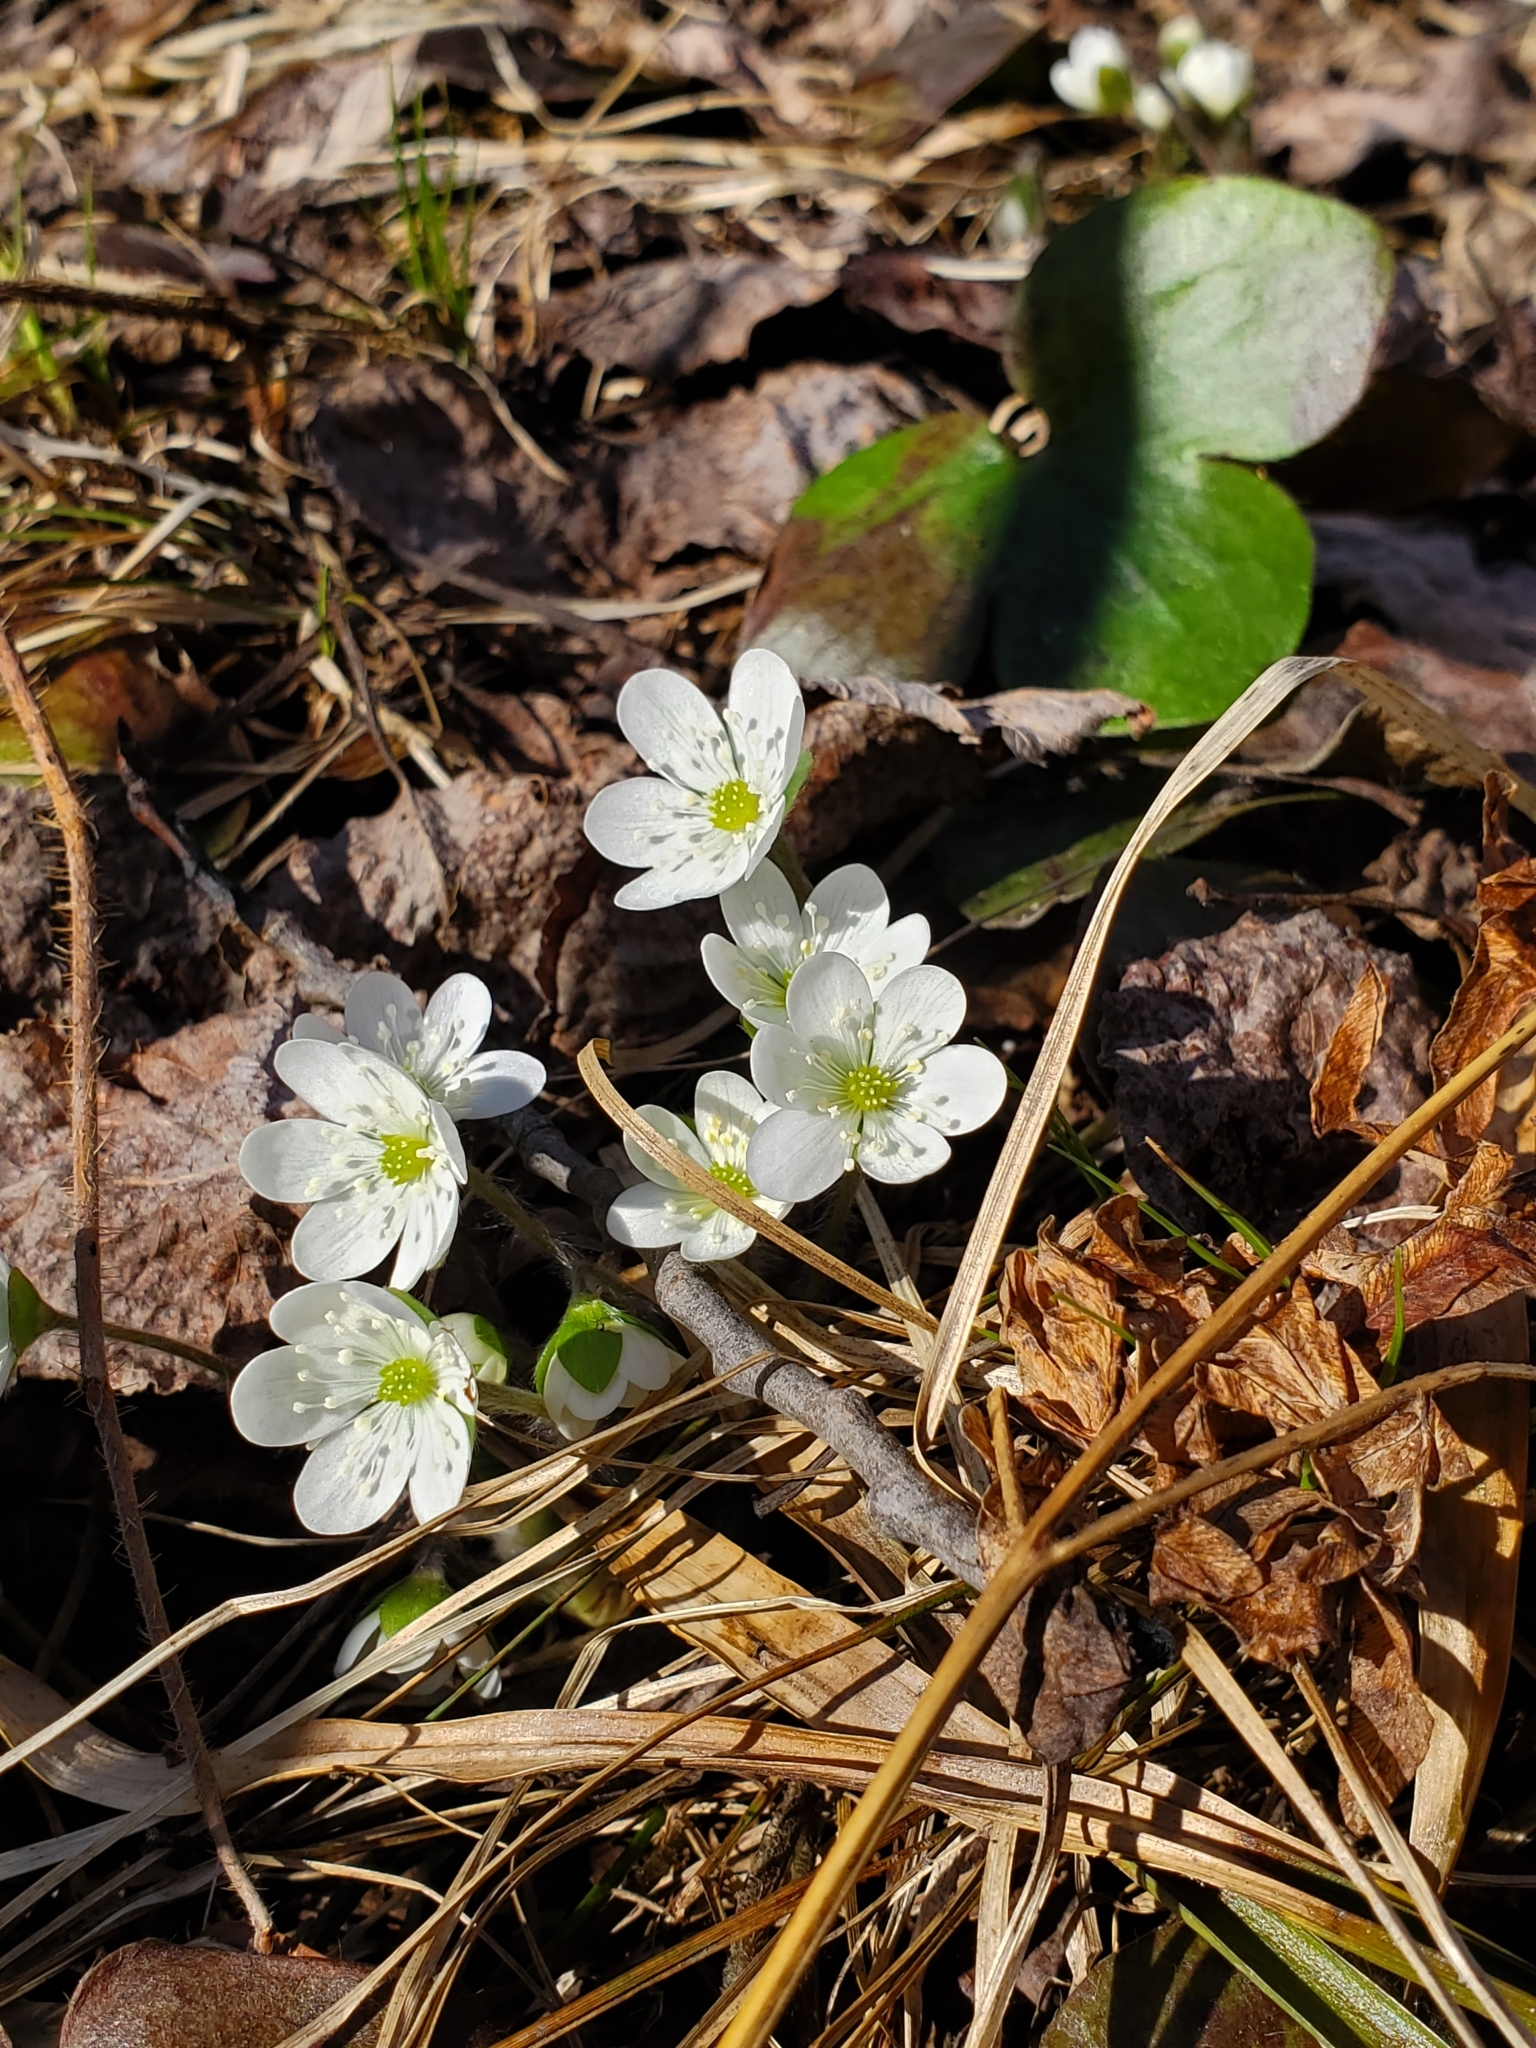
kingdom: Plantae
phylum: Tracheophyta
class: Magnoliopsida
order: Ranunculales
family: Ranunculaceae
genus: Hepatica
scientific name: Hepatica americana
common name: American hepatica
